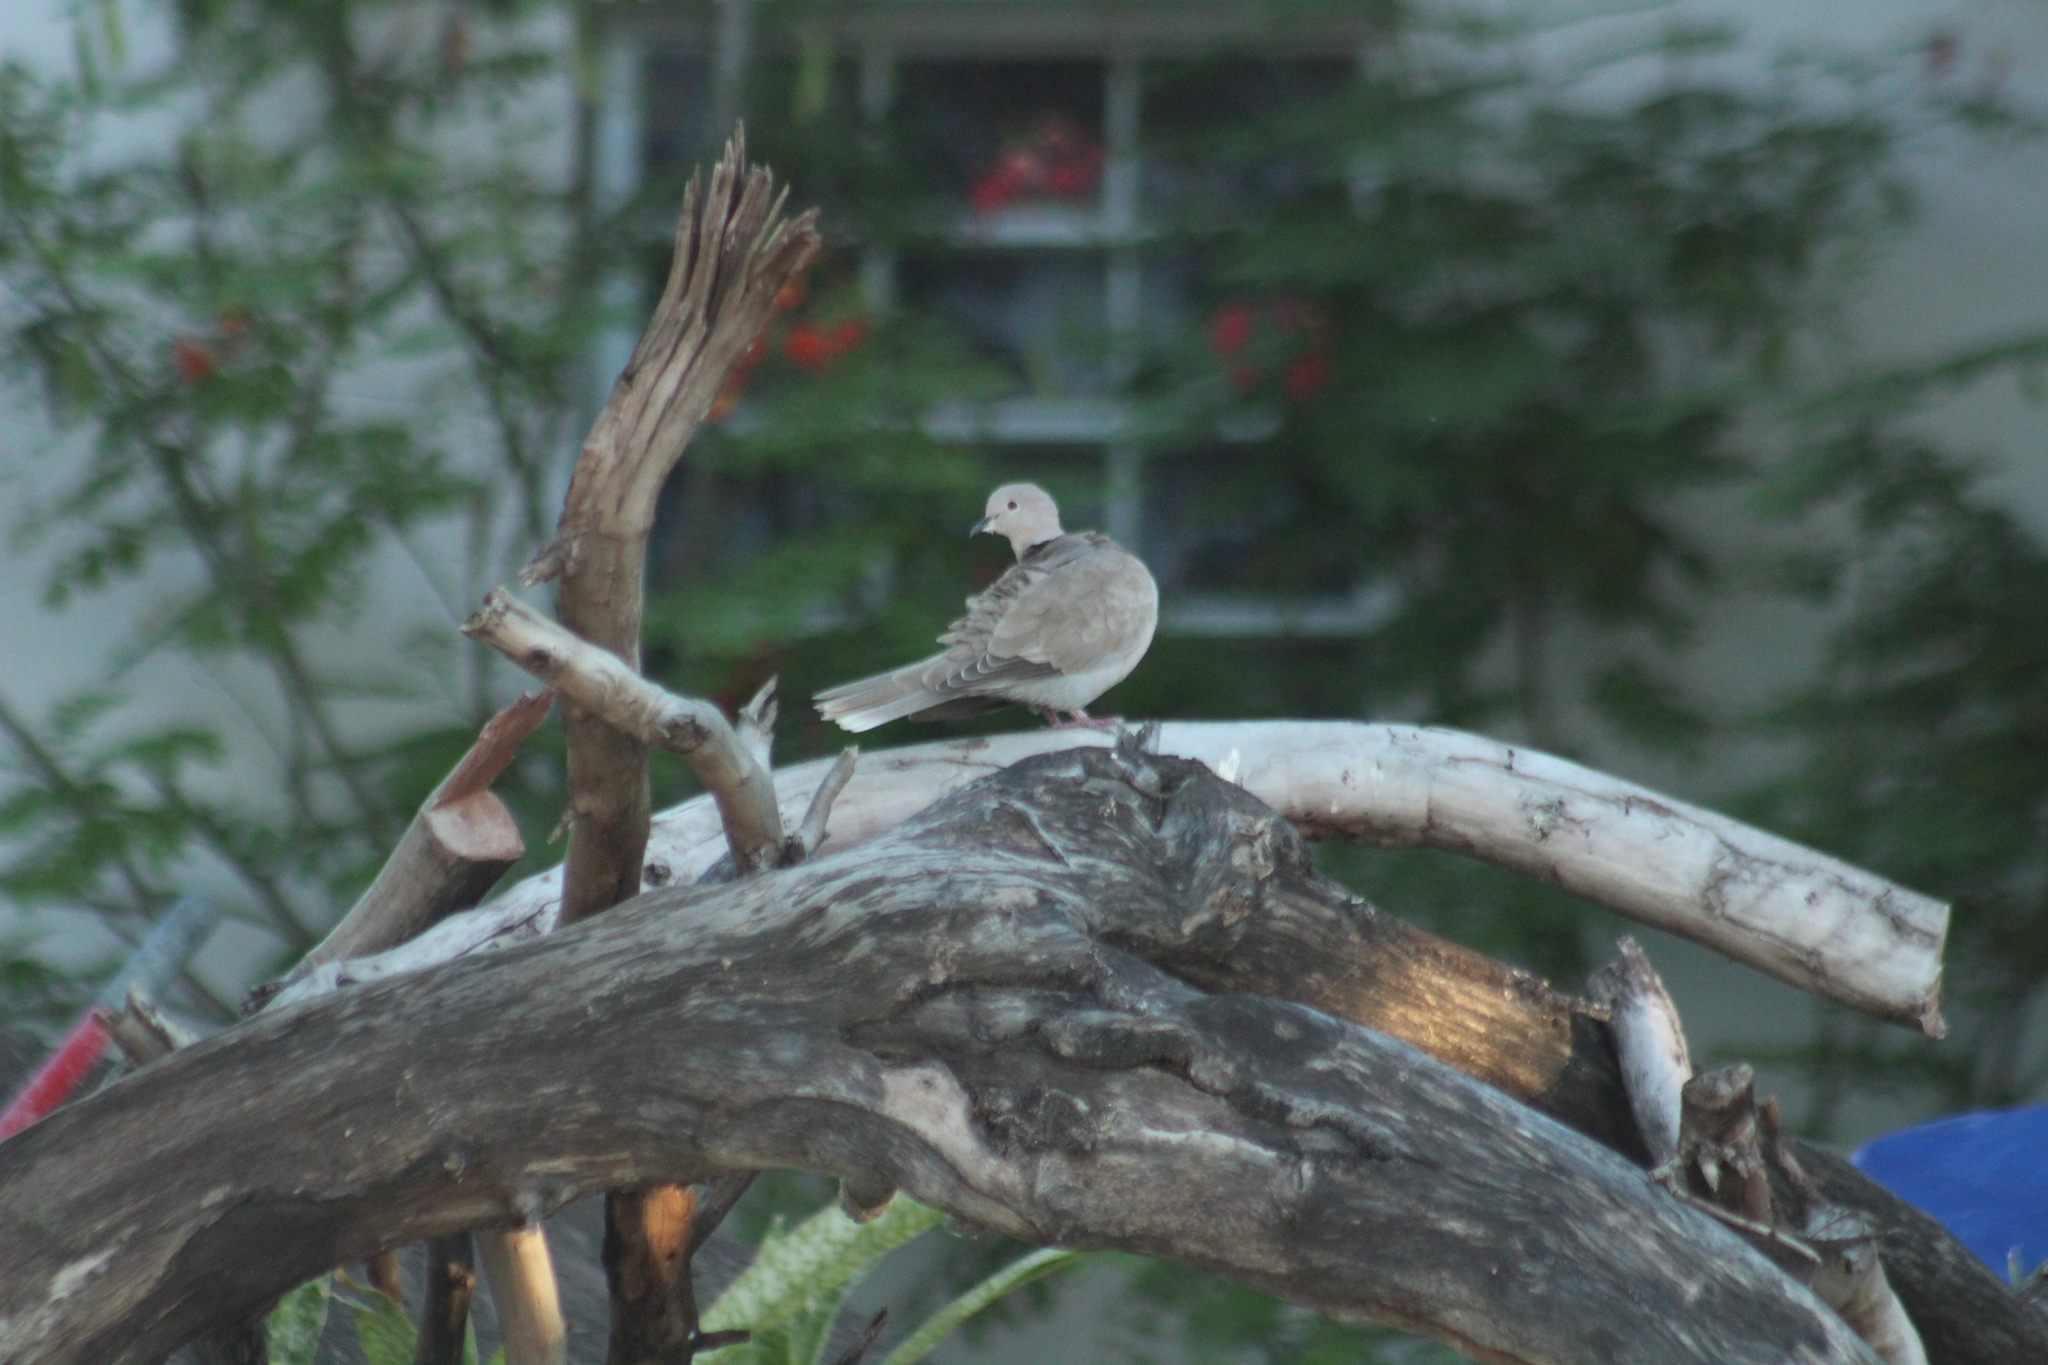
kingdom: Animalia
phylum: Chordata
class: Aves
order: Columbiformes
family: Columbidae
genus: Streptopelia
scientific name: Streptopelia decaocto
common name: Eurasian collared dove
